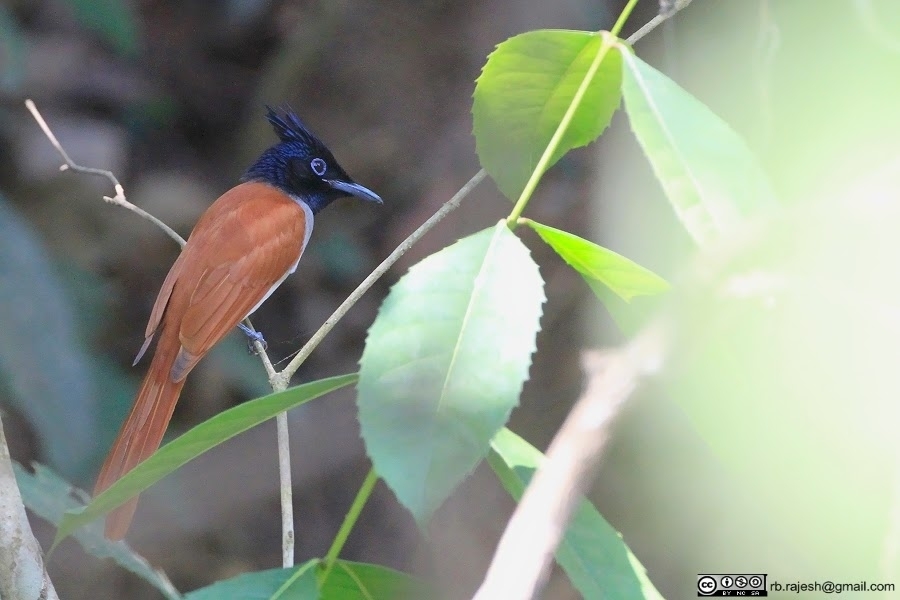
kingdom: Animalia
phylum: Chordata
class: Aves
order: Passeriformes
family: Monarchidae
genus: Terpsiphone
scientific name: Terpsiphone paradisi
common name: Indian paradise flycatcher
